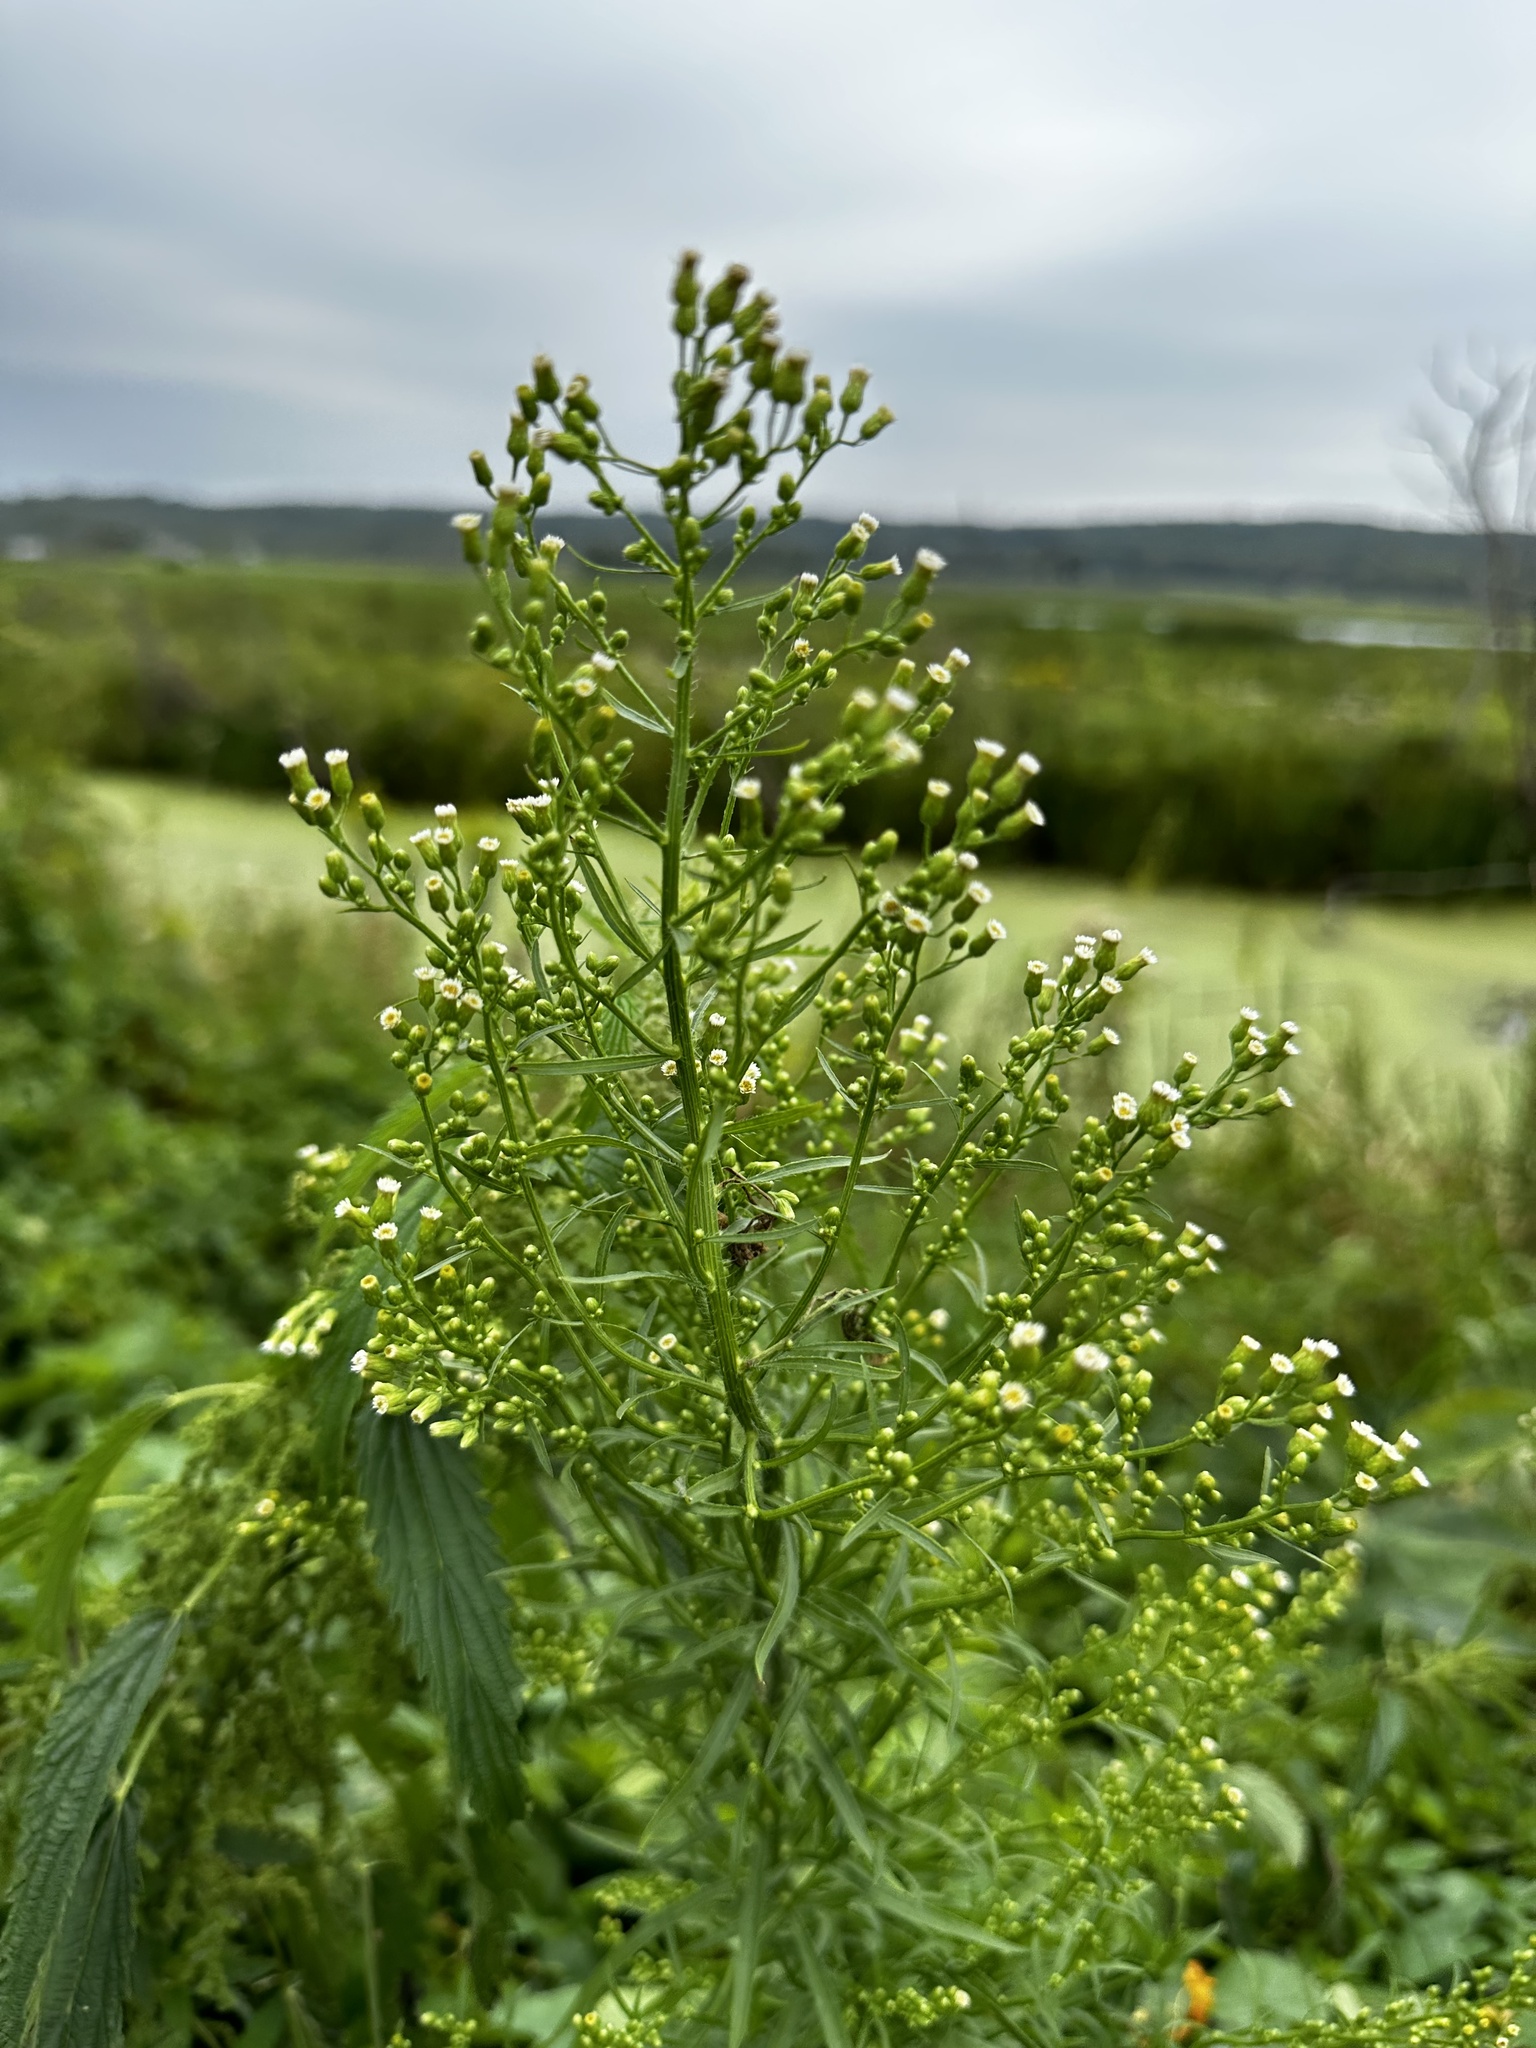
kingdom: Plantae
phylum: Tracheophyta
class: Magnoliopsida
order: Asterales
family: Asteraceae
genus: Erigeron
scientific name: Erigeron canadensis
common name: Canadian fleabane
